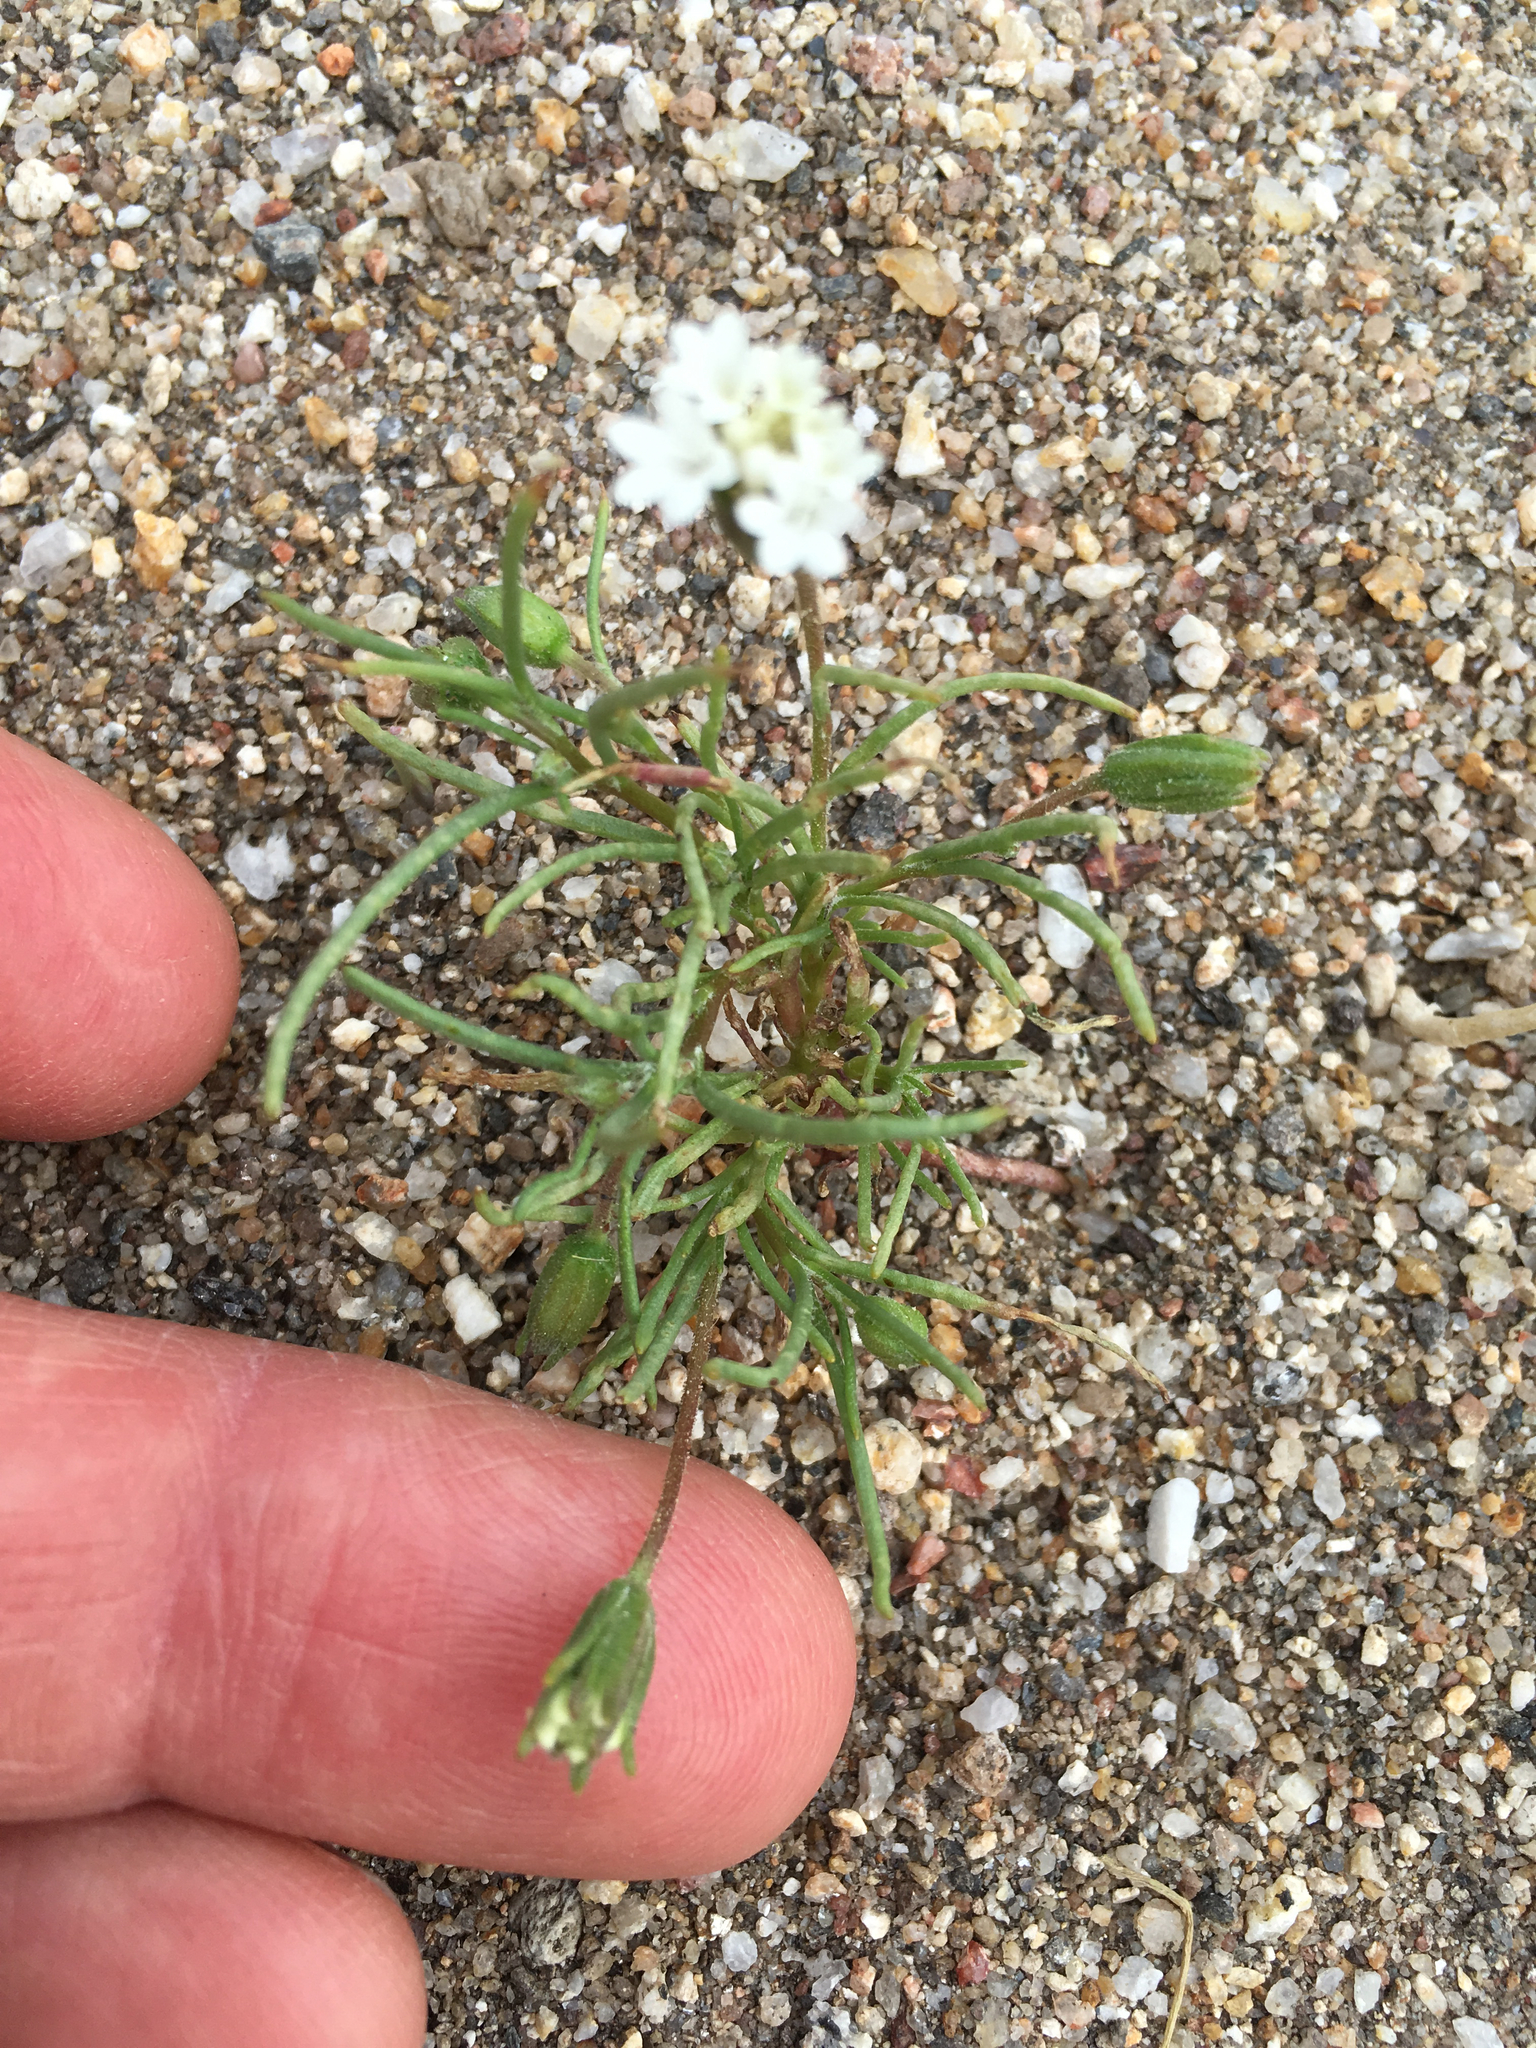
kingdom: Plantae
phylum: Tracheophyta
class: Magnoliopsida
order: Asterales
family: Asteraceae
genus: Chaenactis
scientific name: Chaenactis fremontii
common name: Fremont pincushion
